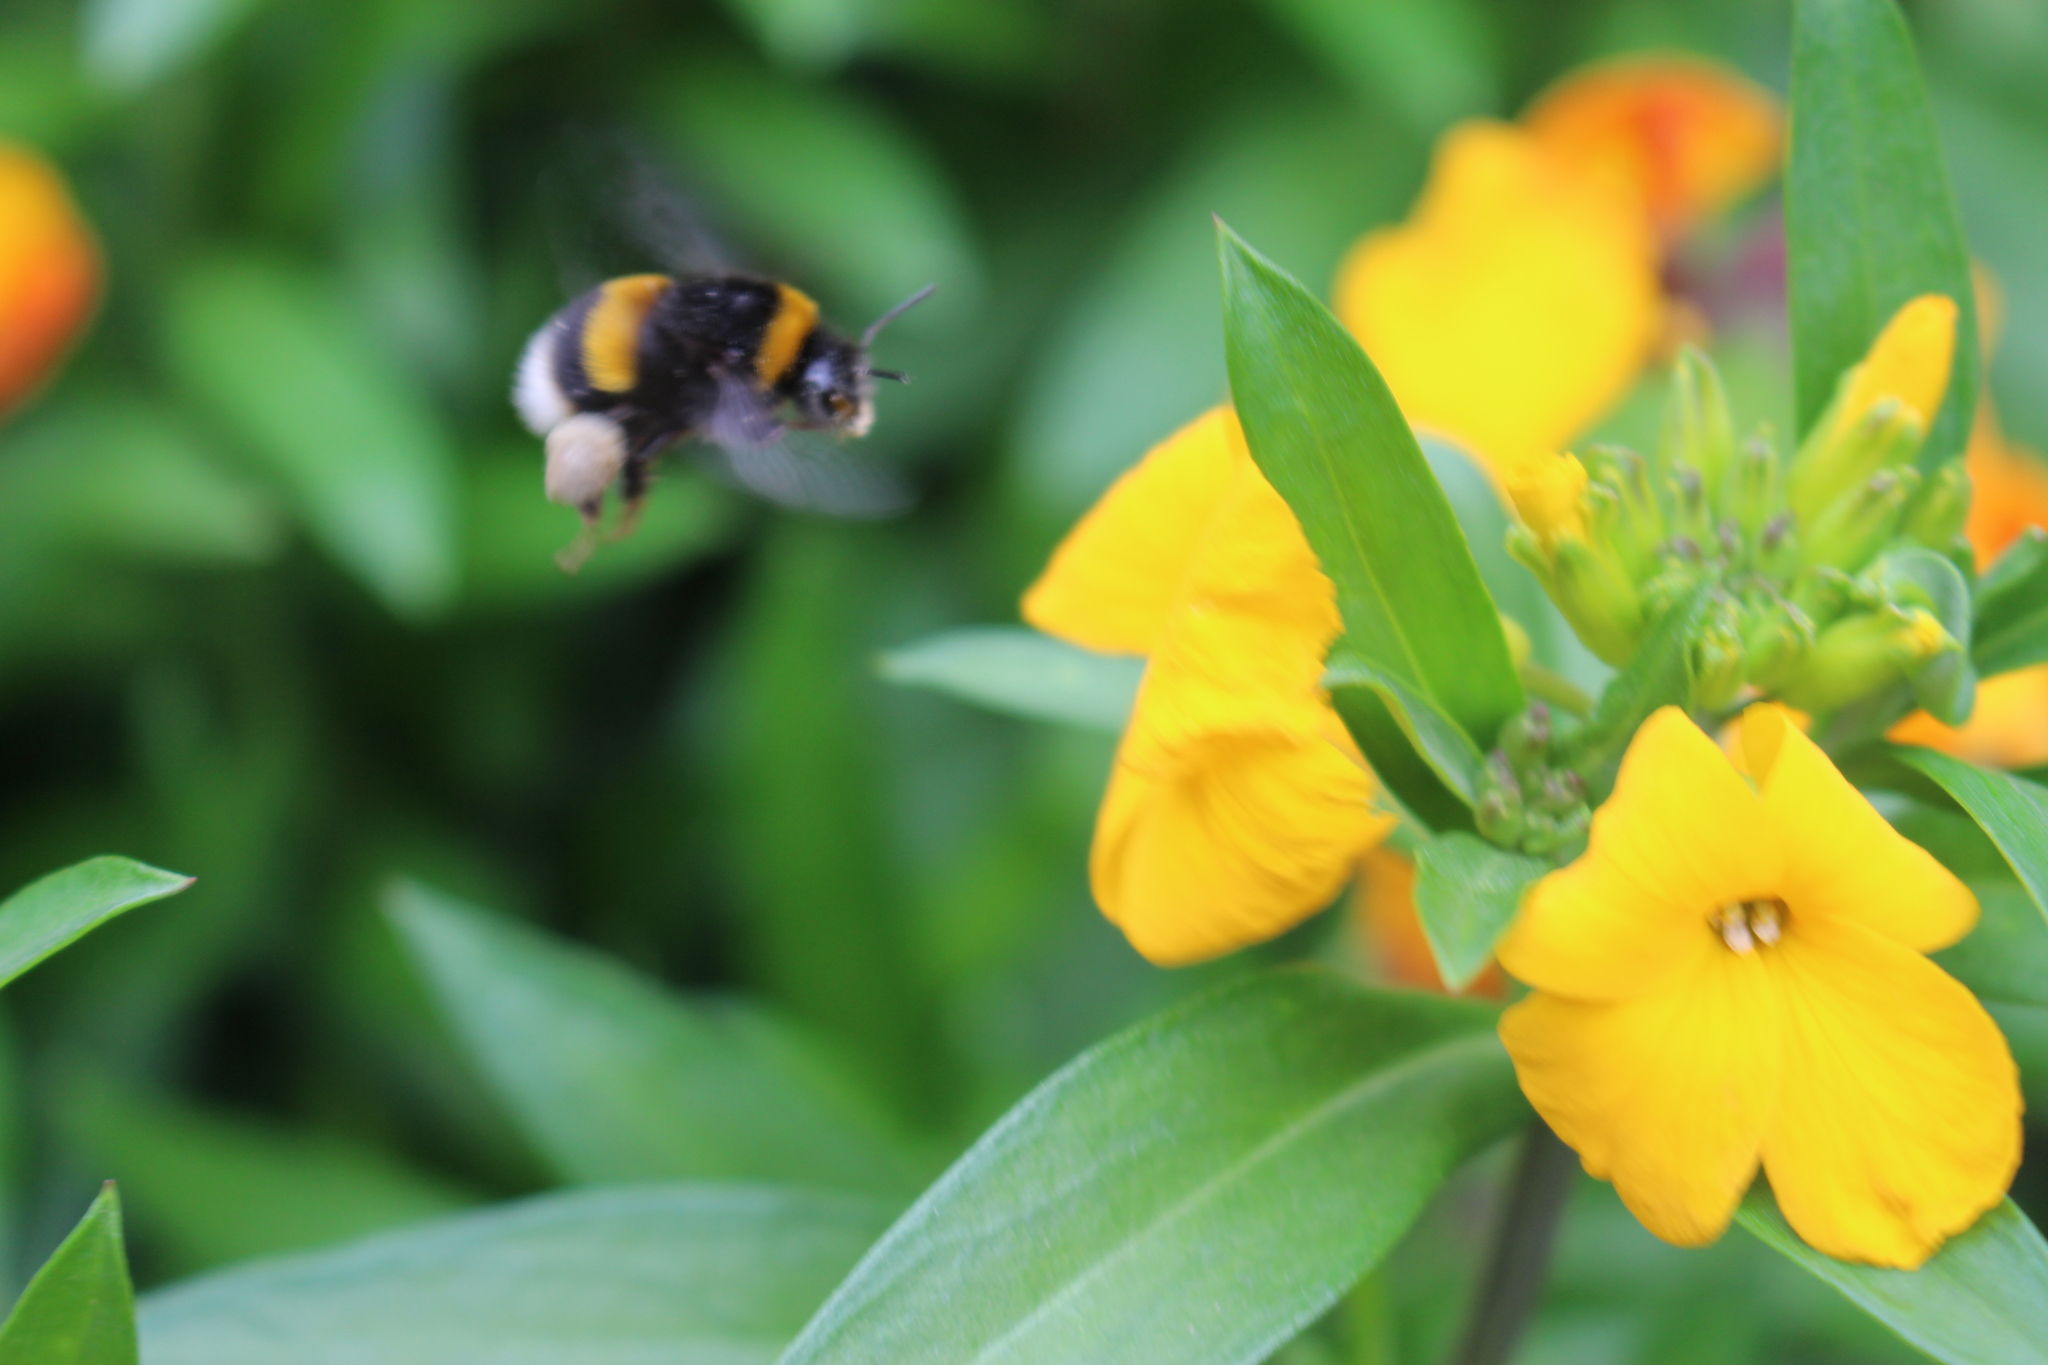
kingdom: Animalia
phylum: Arthropoda
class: Insecta
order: Hymenoptera
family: Apidae
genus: Bombus
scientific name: Bombus terrestris
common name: Buff-tailed bumblebee
